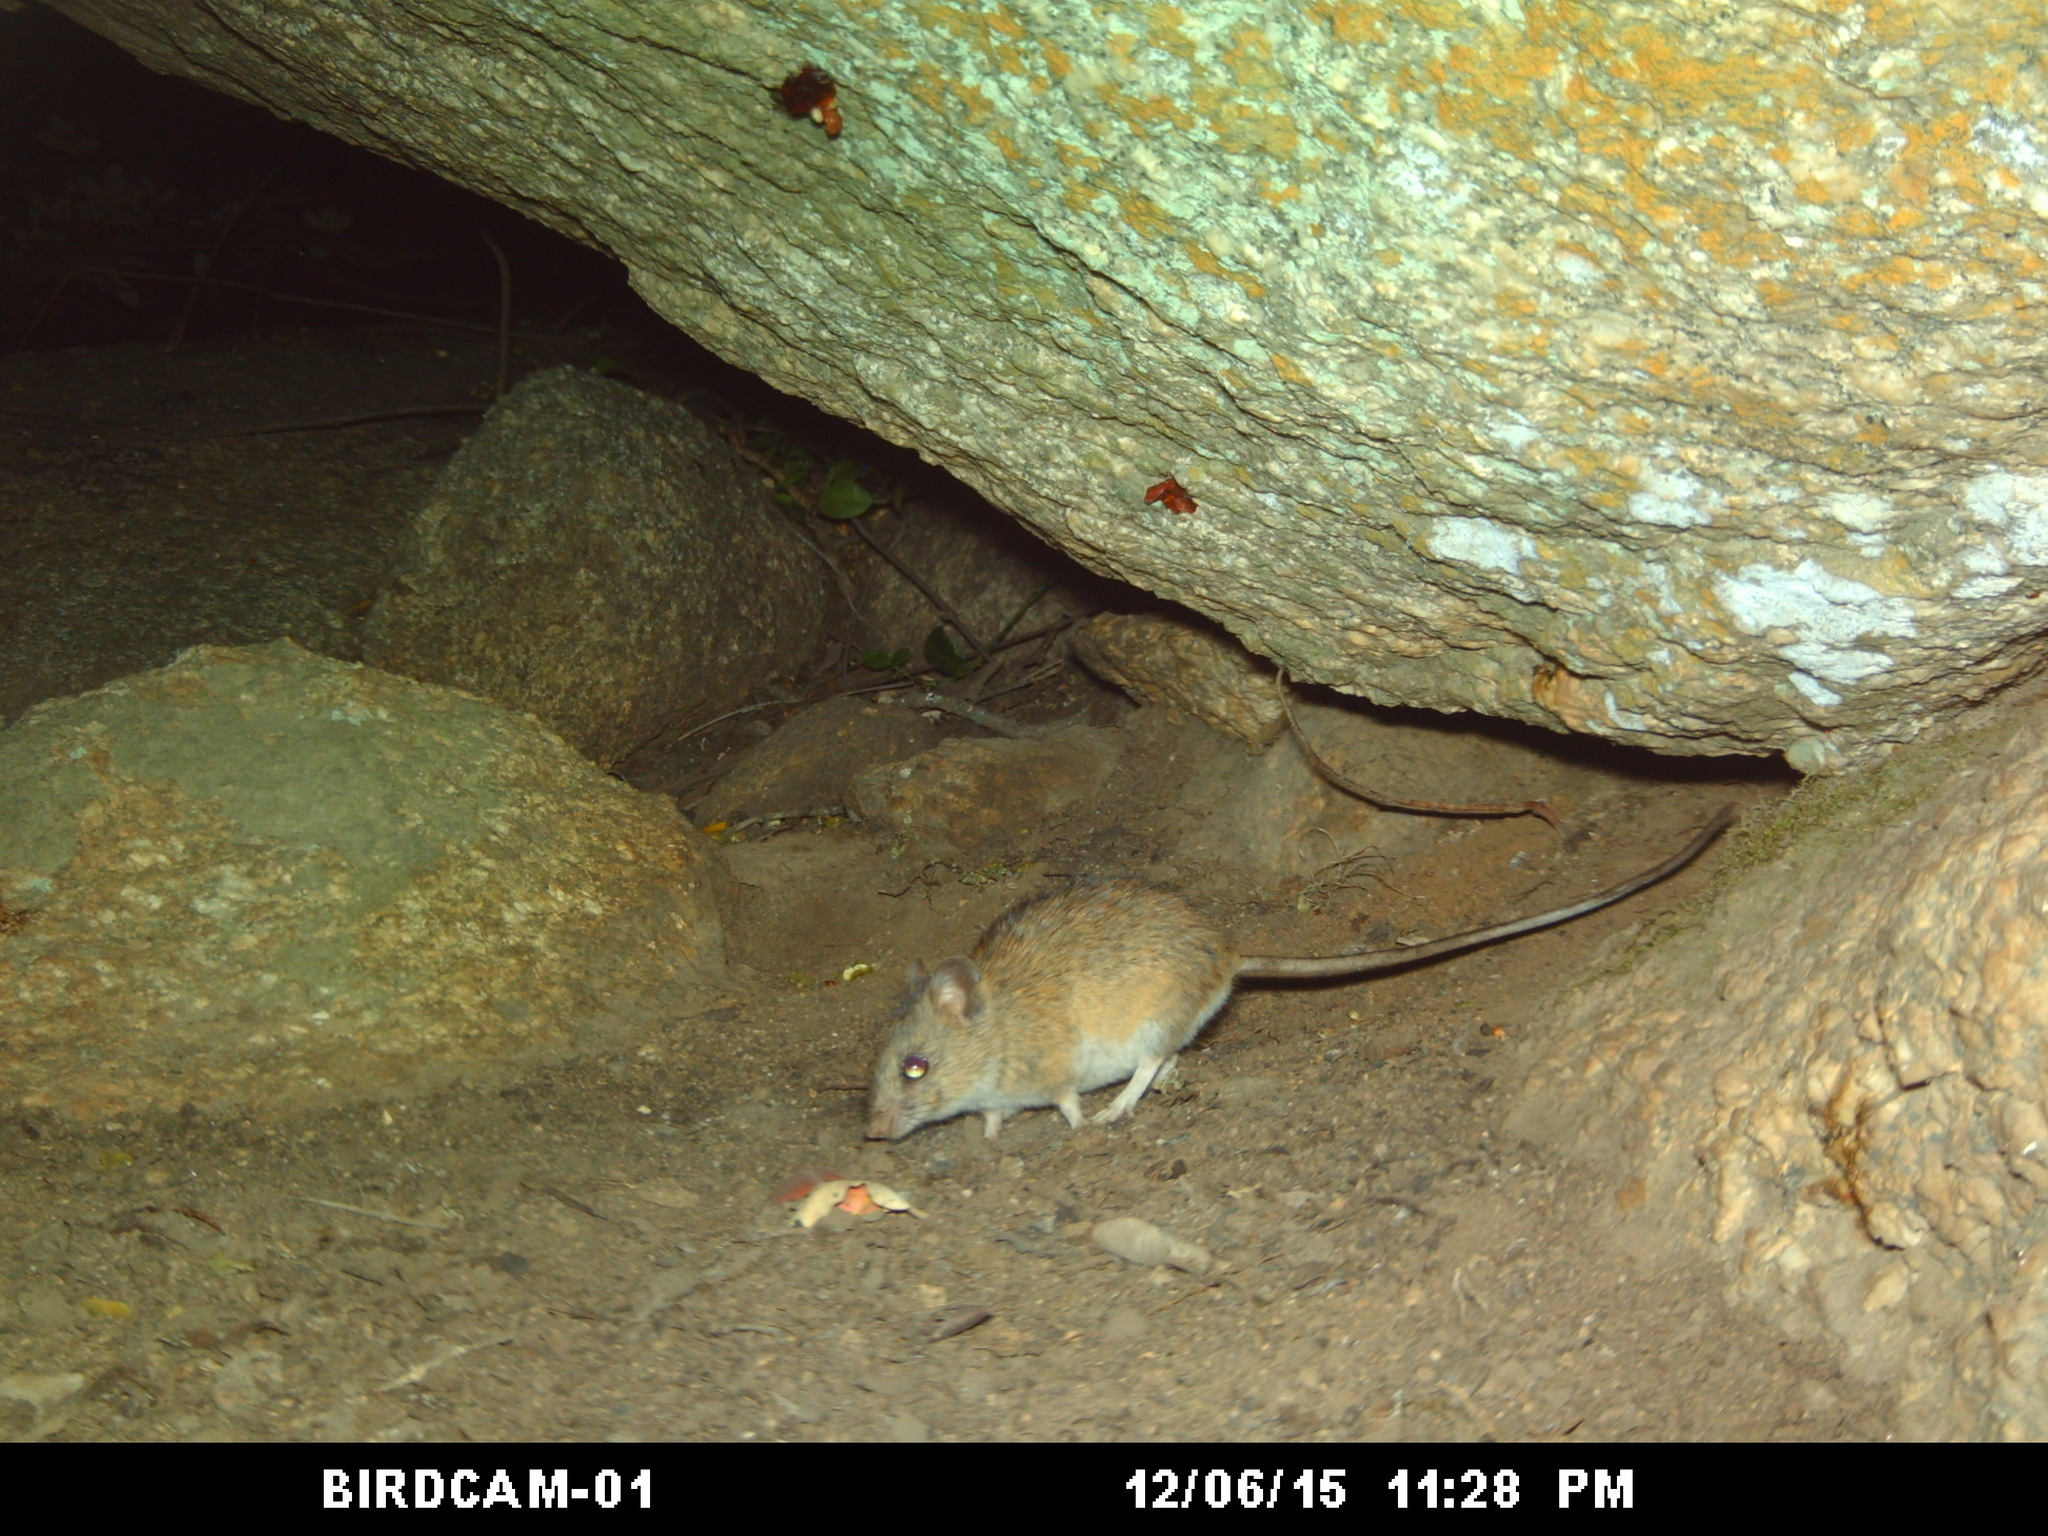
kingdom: Animalia
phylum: Chordata
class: Mammalia
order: Rodentia
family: Muridae
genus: Micaelamys
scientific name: Micaelamys namaquensis
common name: Namaqua micaelamys
